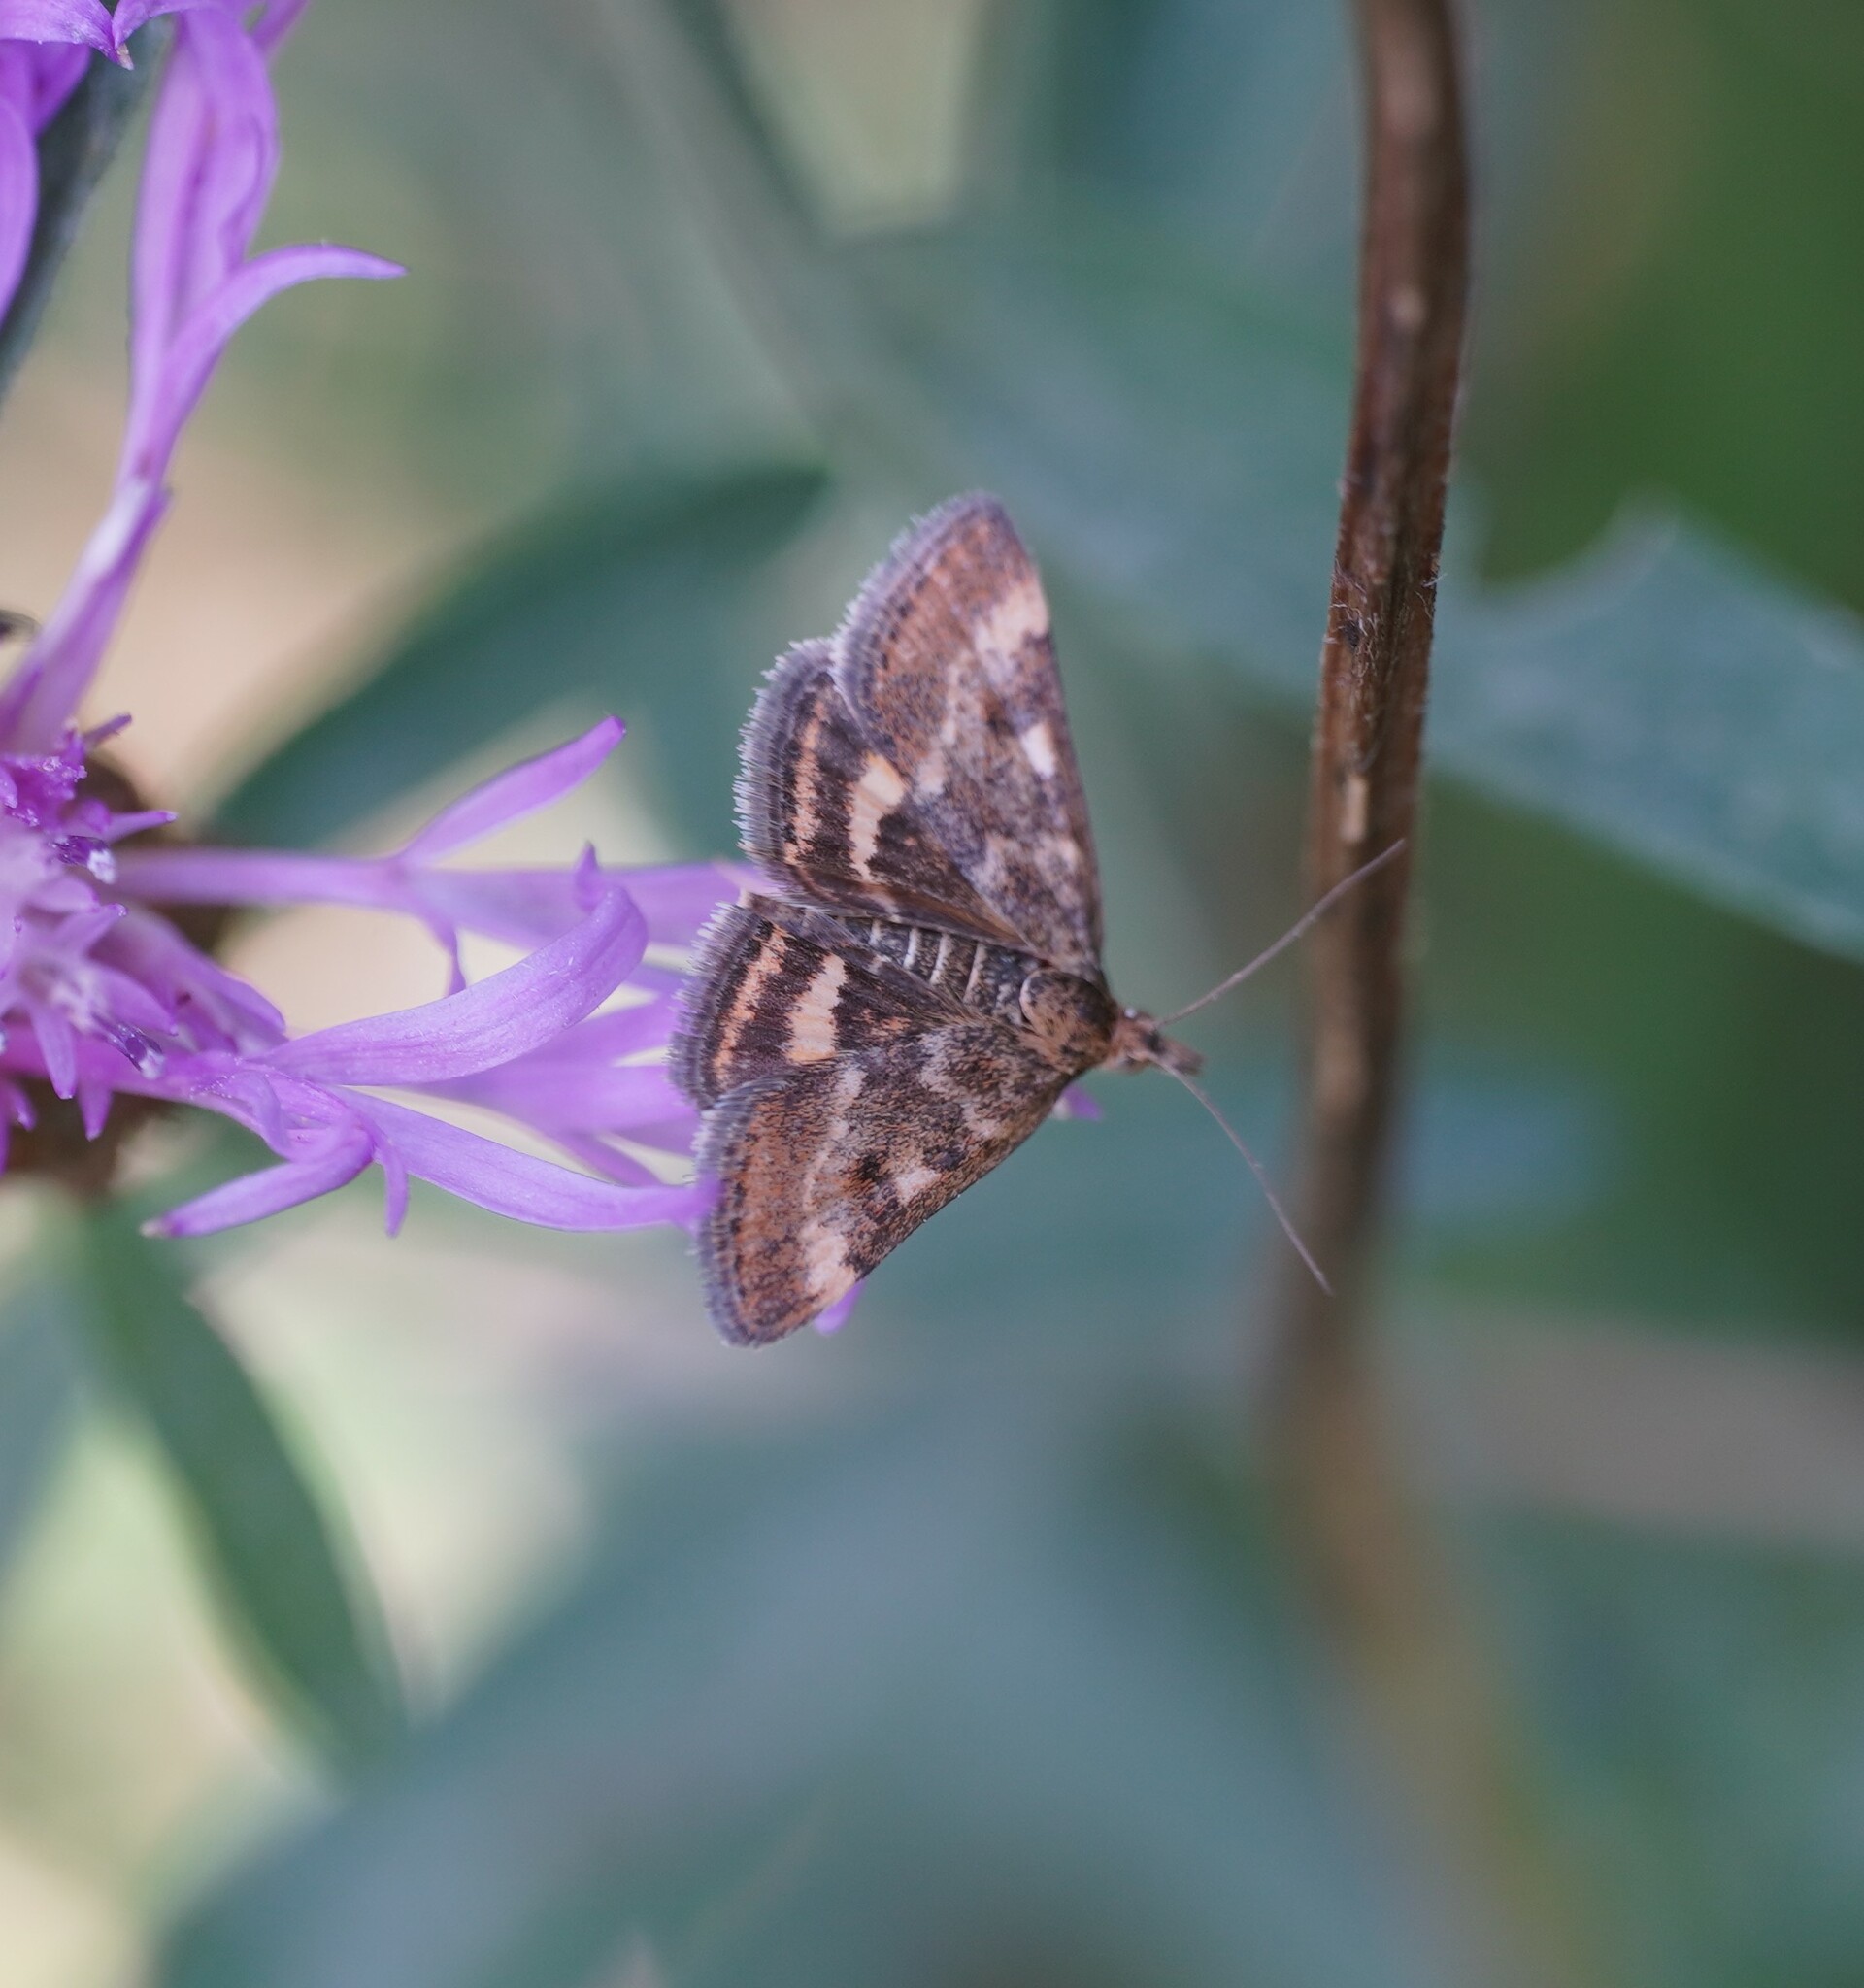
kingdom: Animalia
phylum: Arthropoda
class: Insecta
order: Lepidoptera
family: Crambidae
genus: Pyrausta
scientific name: Pyrausta despicata
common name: Straw-barred pearl
